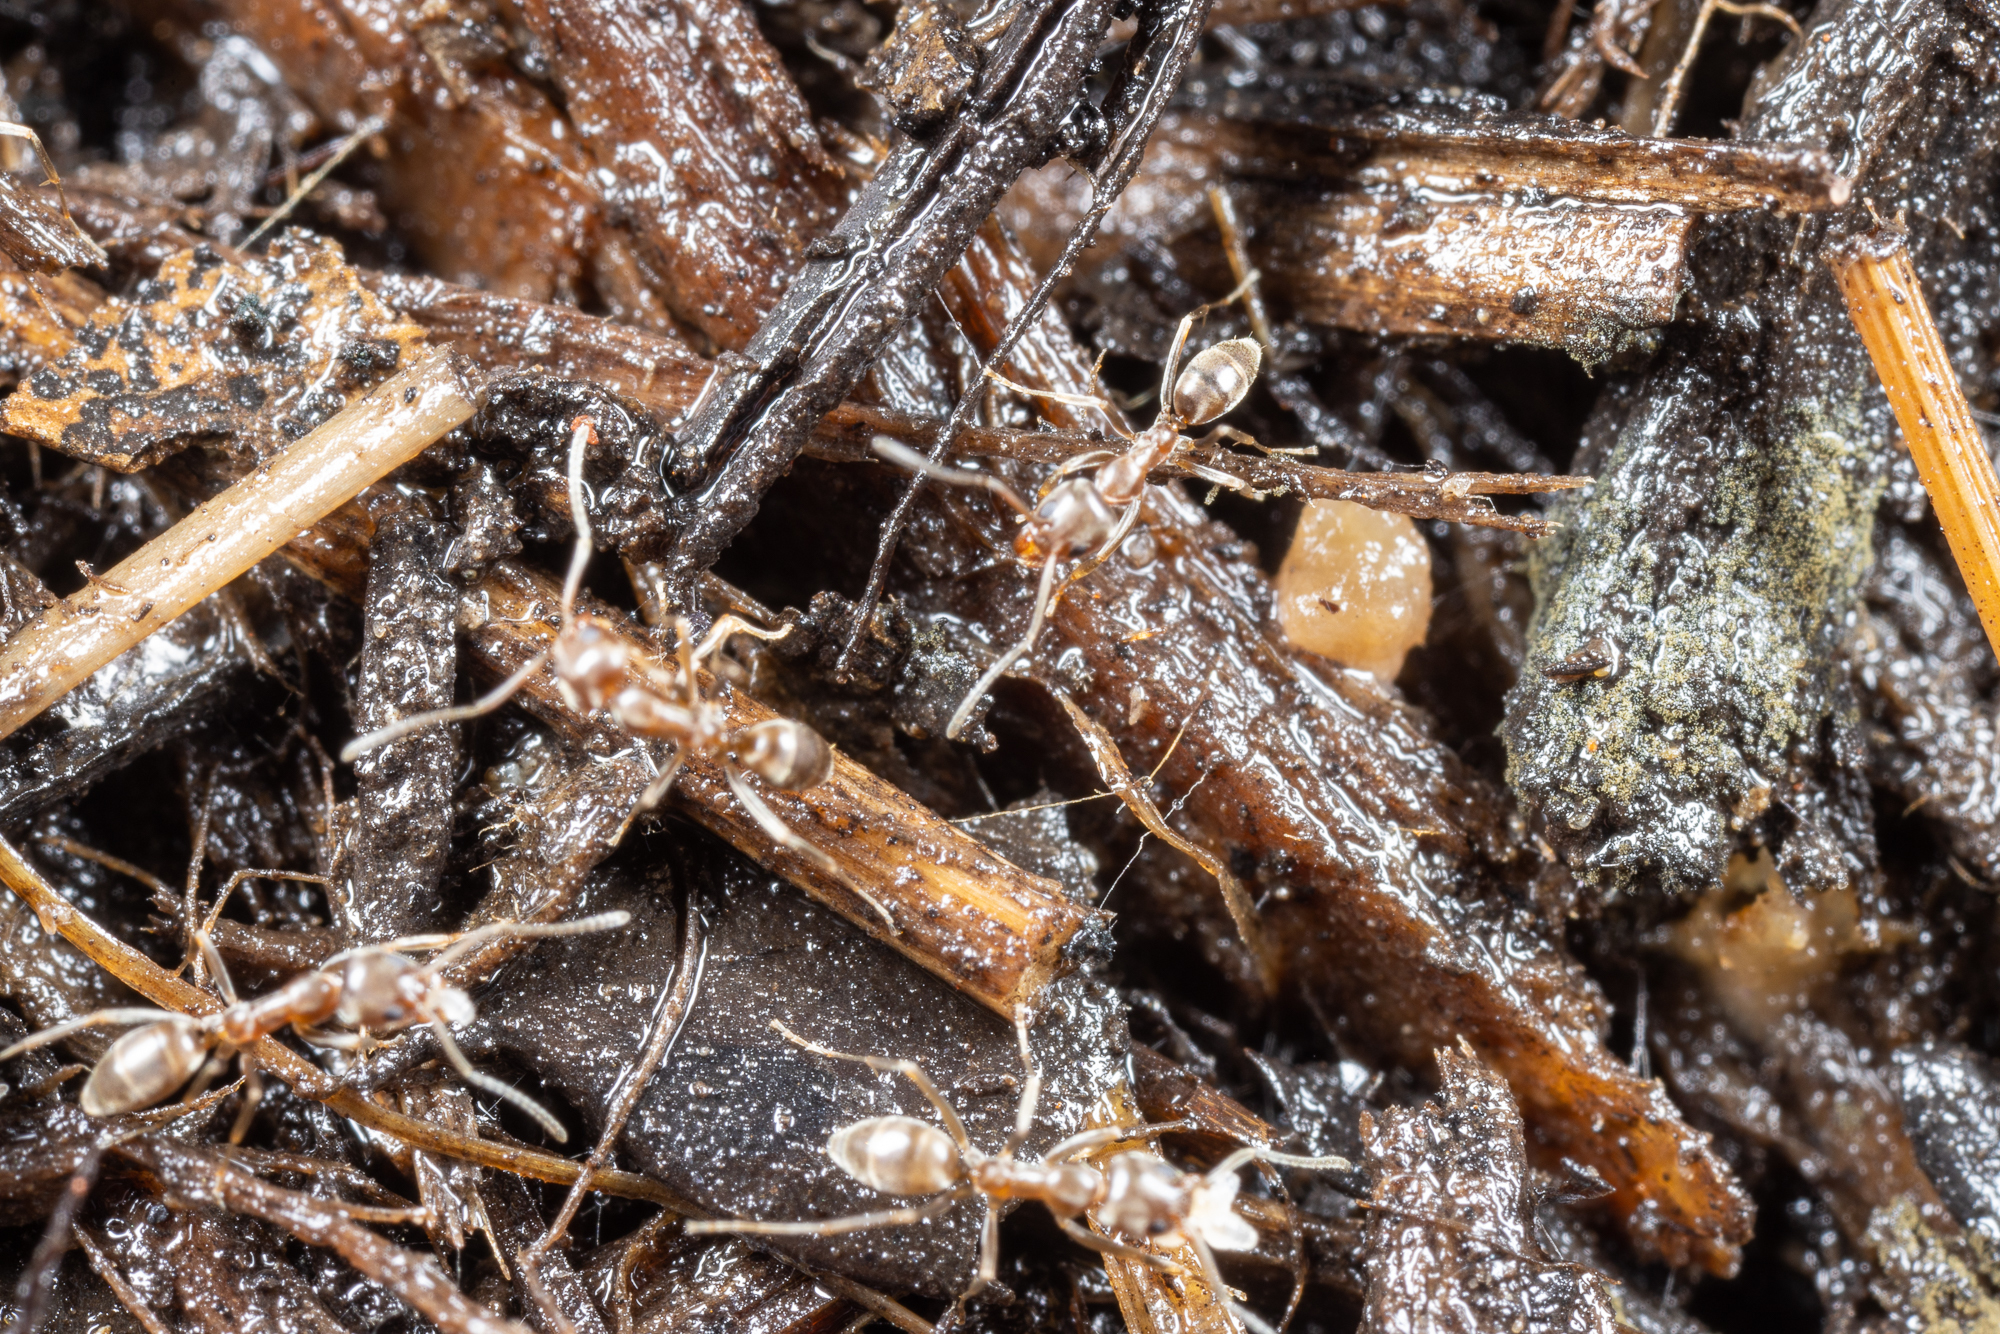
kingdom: Animalia
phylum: Arthropoda
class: Insecta
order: Hymenoptera
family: Formicidae
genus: Linepithema
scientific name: Linepithema humile
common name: Argentine ant
